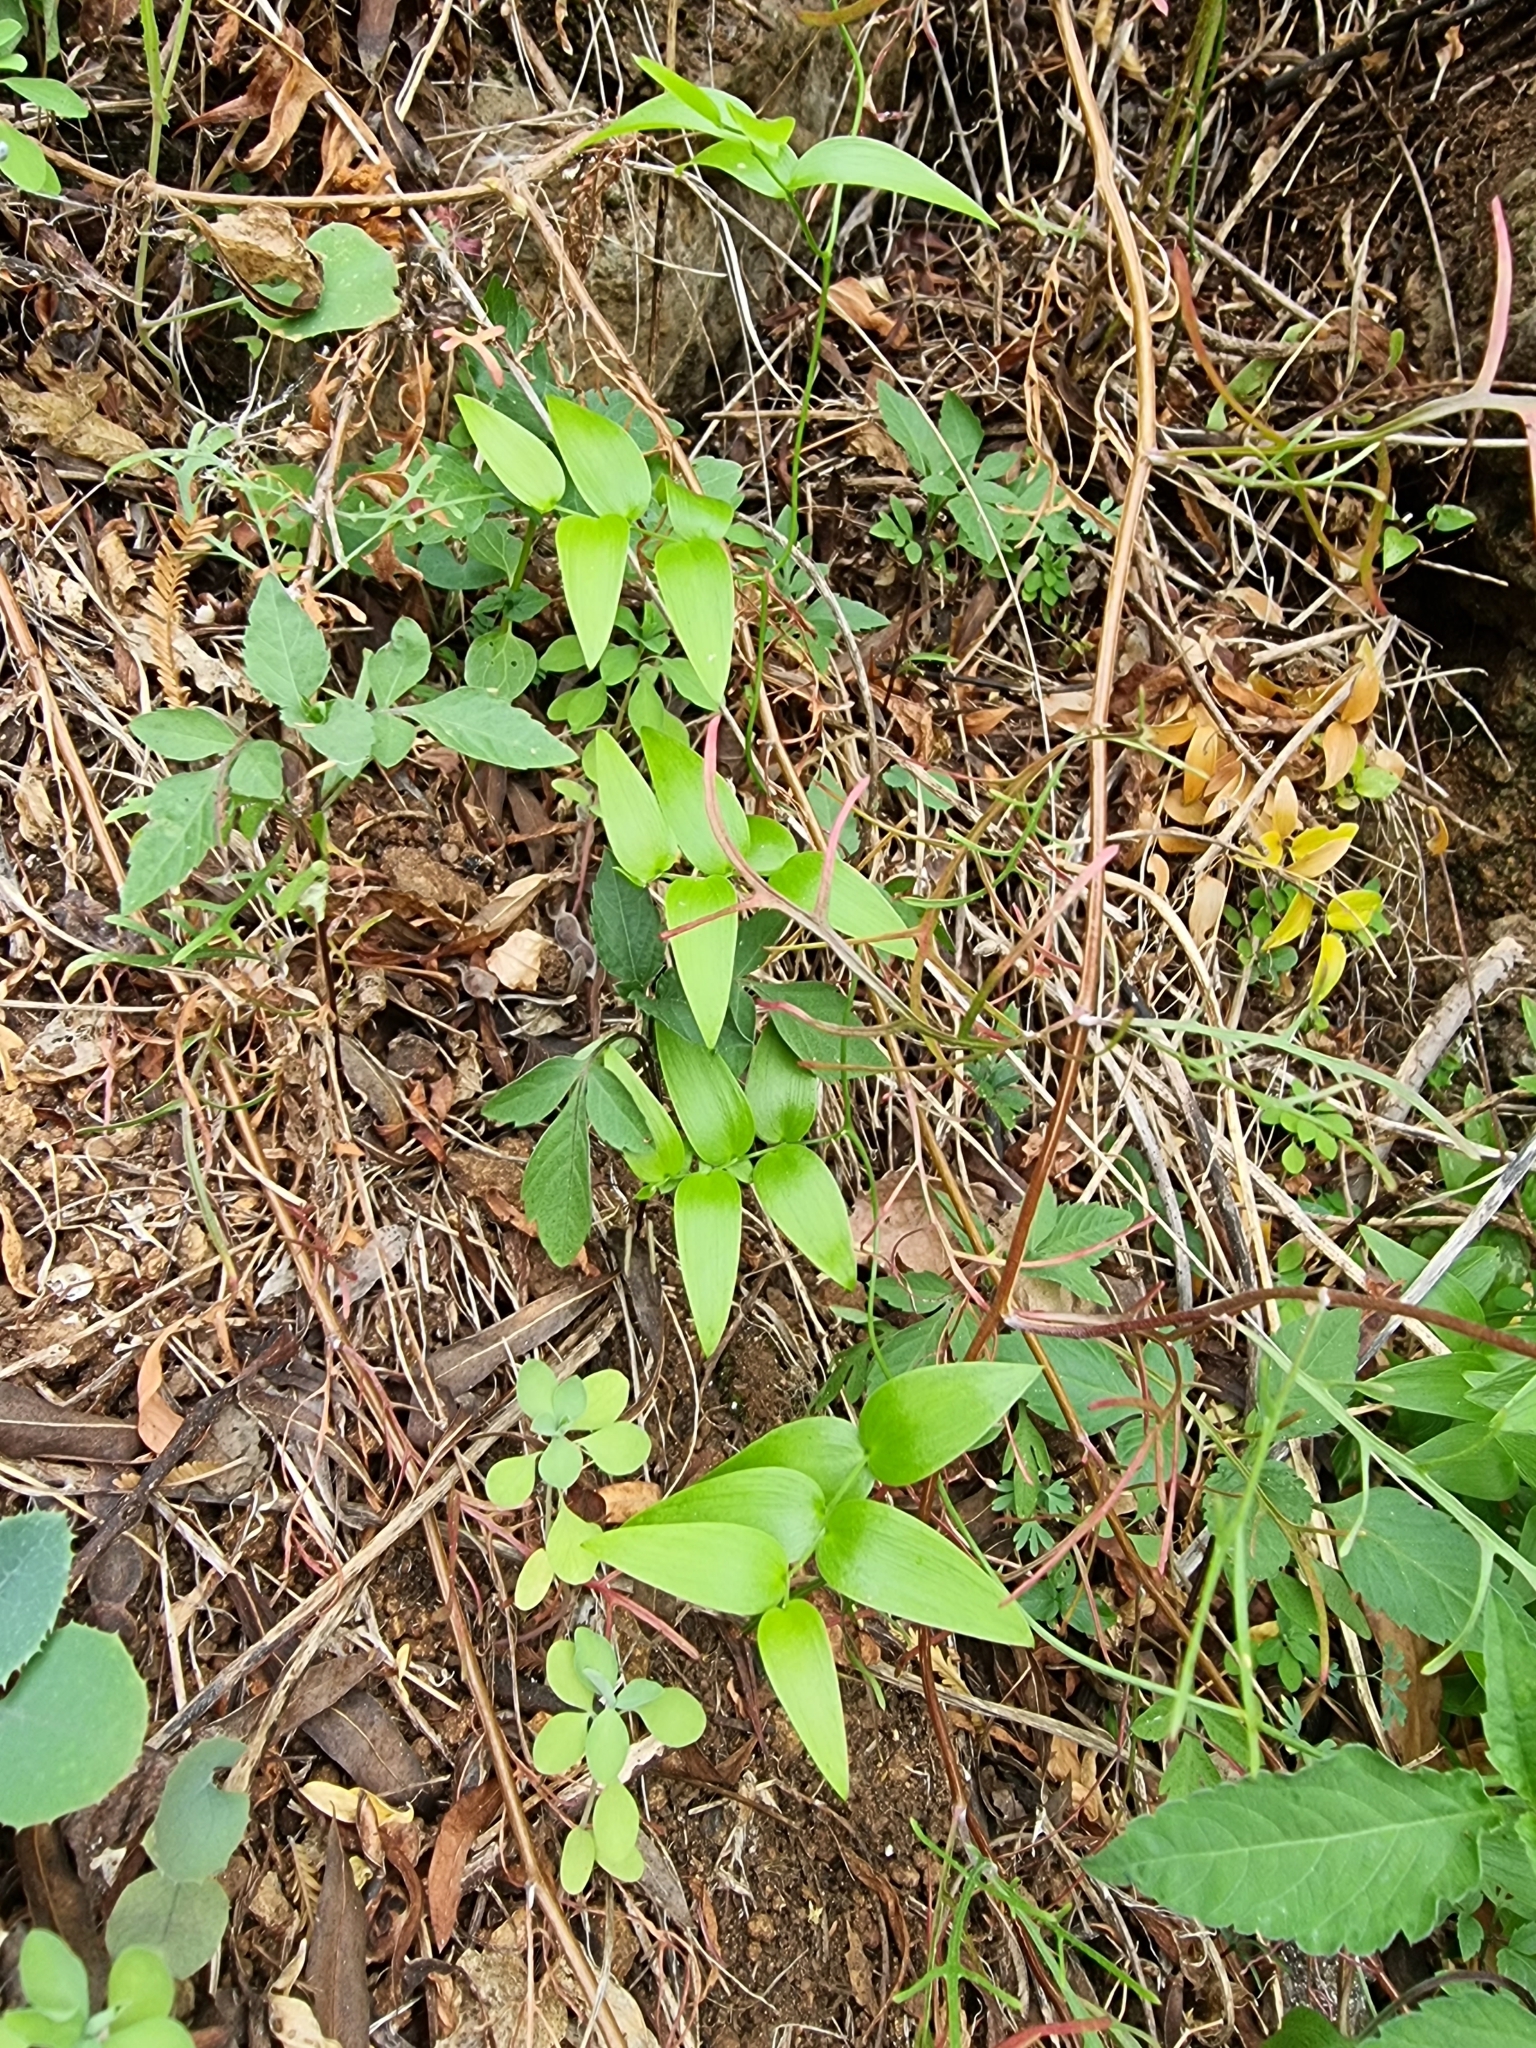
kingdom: Plantae
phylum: Tracheophyta
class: Liliopsida
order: Asparagales
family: Asparagaceae
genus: Asparagus
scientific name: Asparagus asparagoides
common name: African asparagus fern
